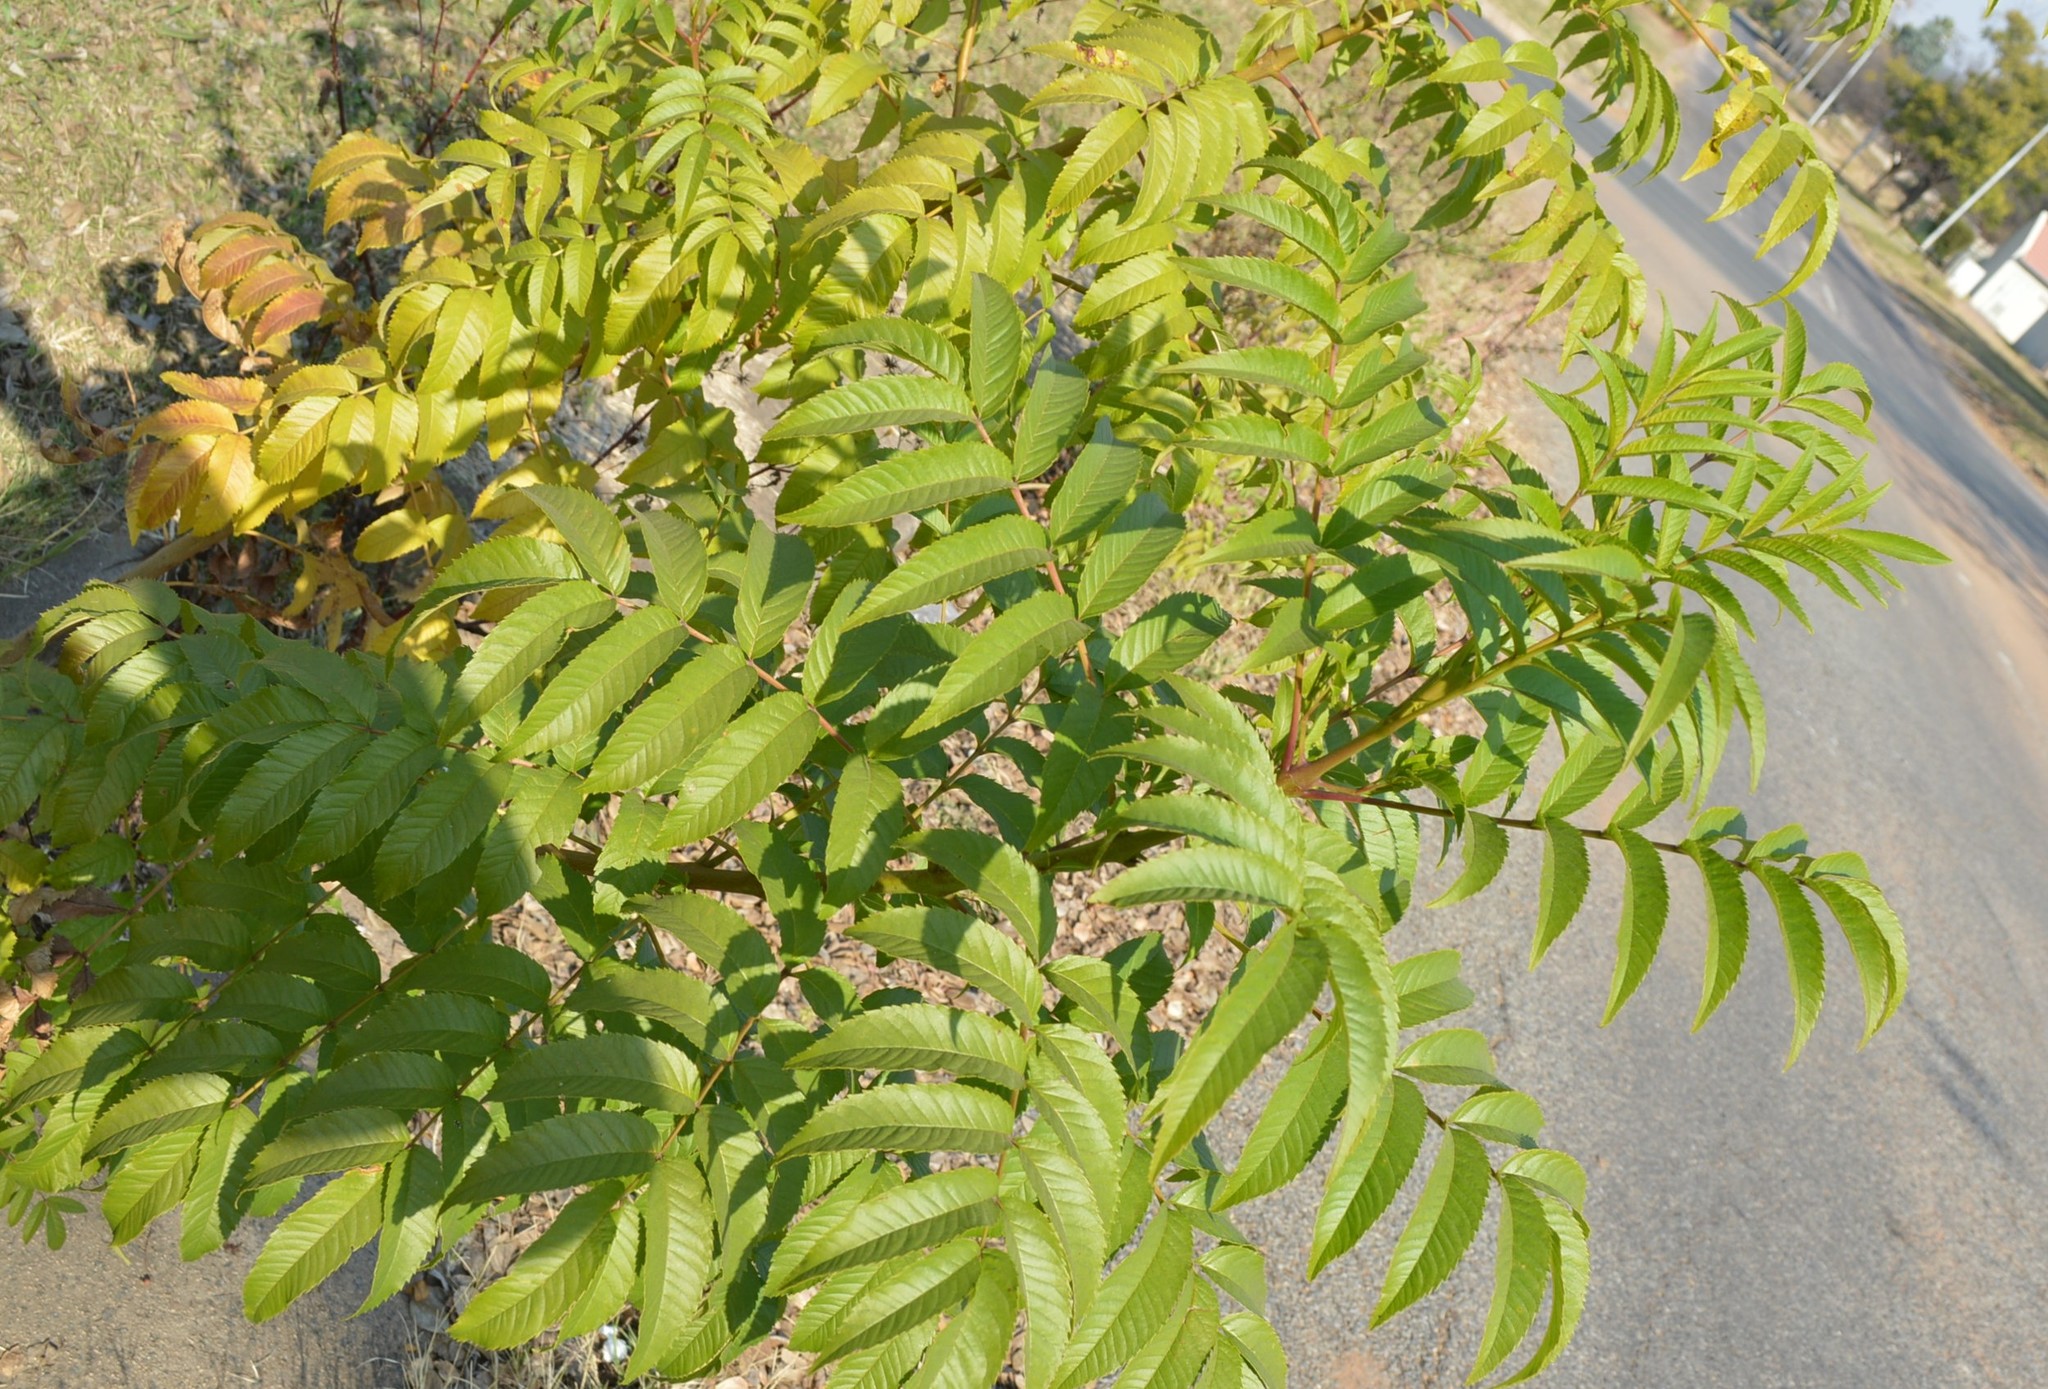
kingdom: Plantae
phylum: Tracheophyta
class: Magnoliopsida
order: Lamiales
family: Bignoniaceae
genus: Tecoma
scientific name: Tecoma stans
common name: Yellow trumpetbush
